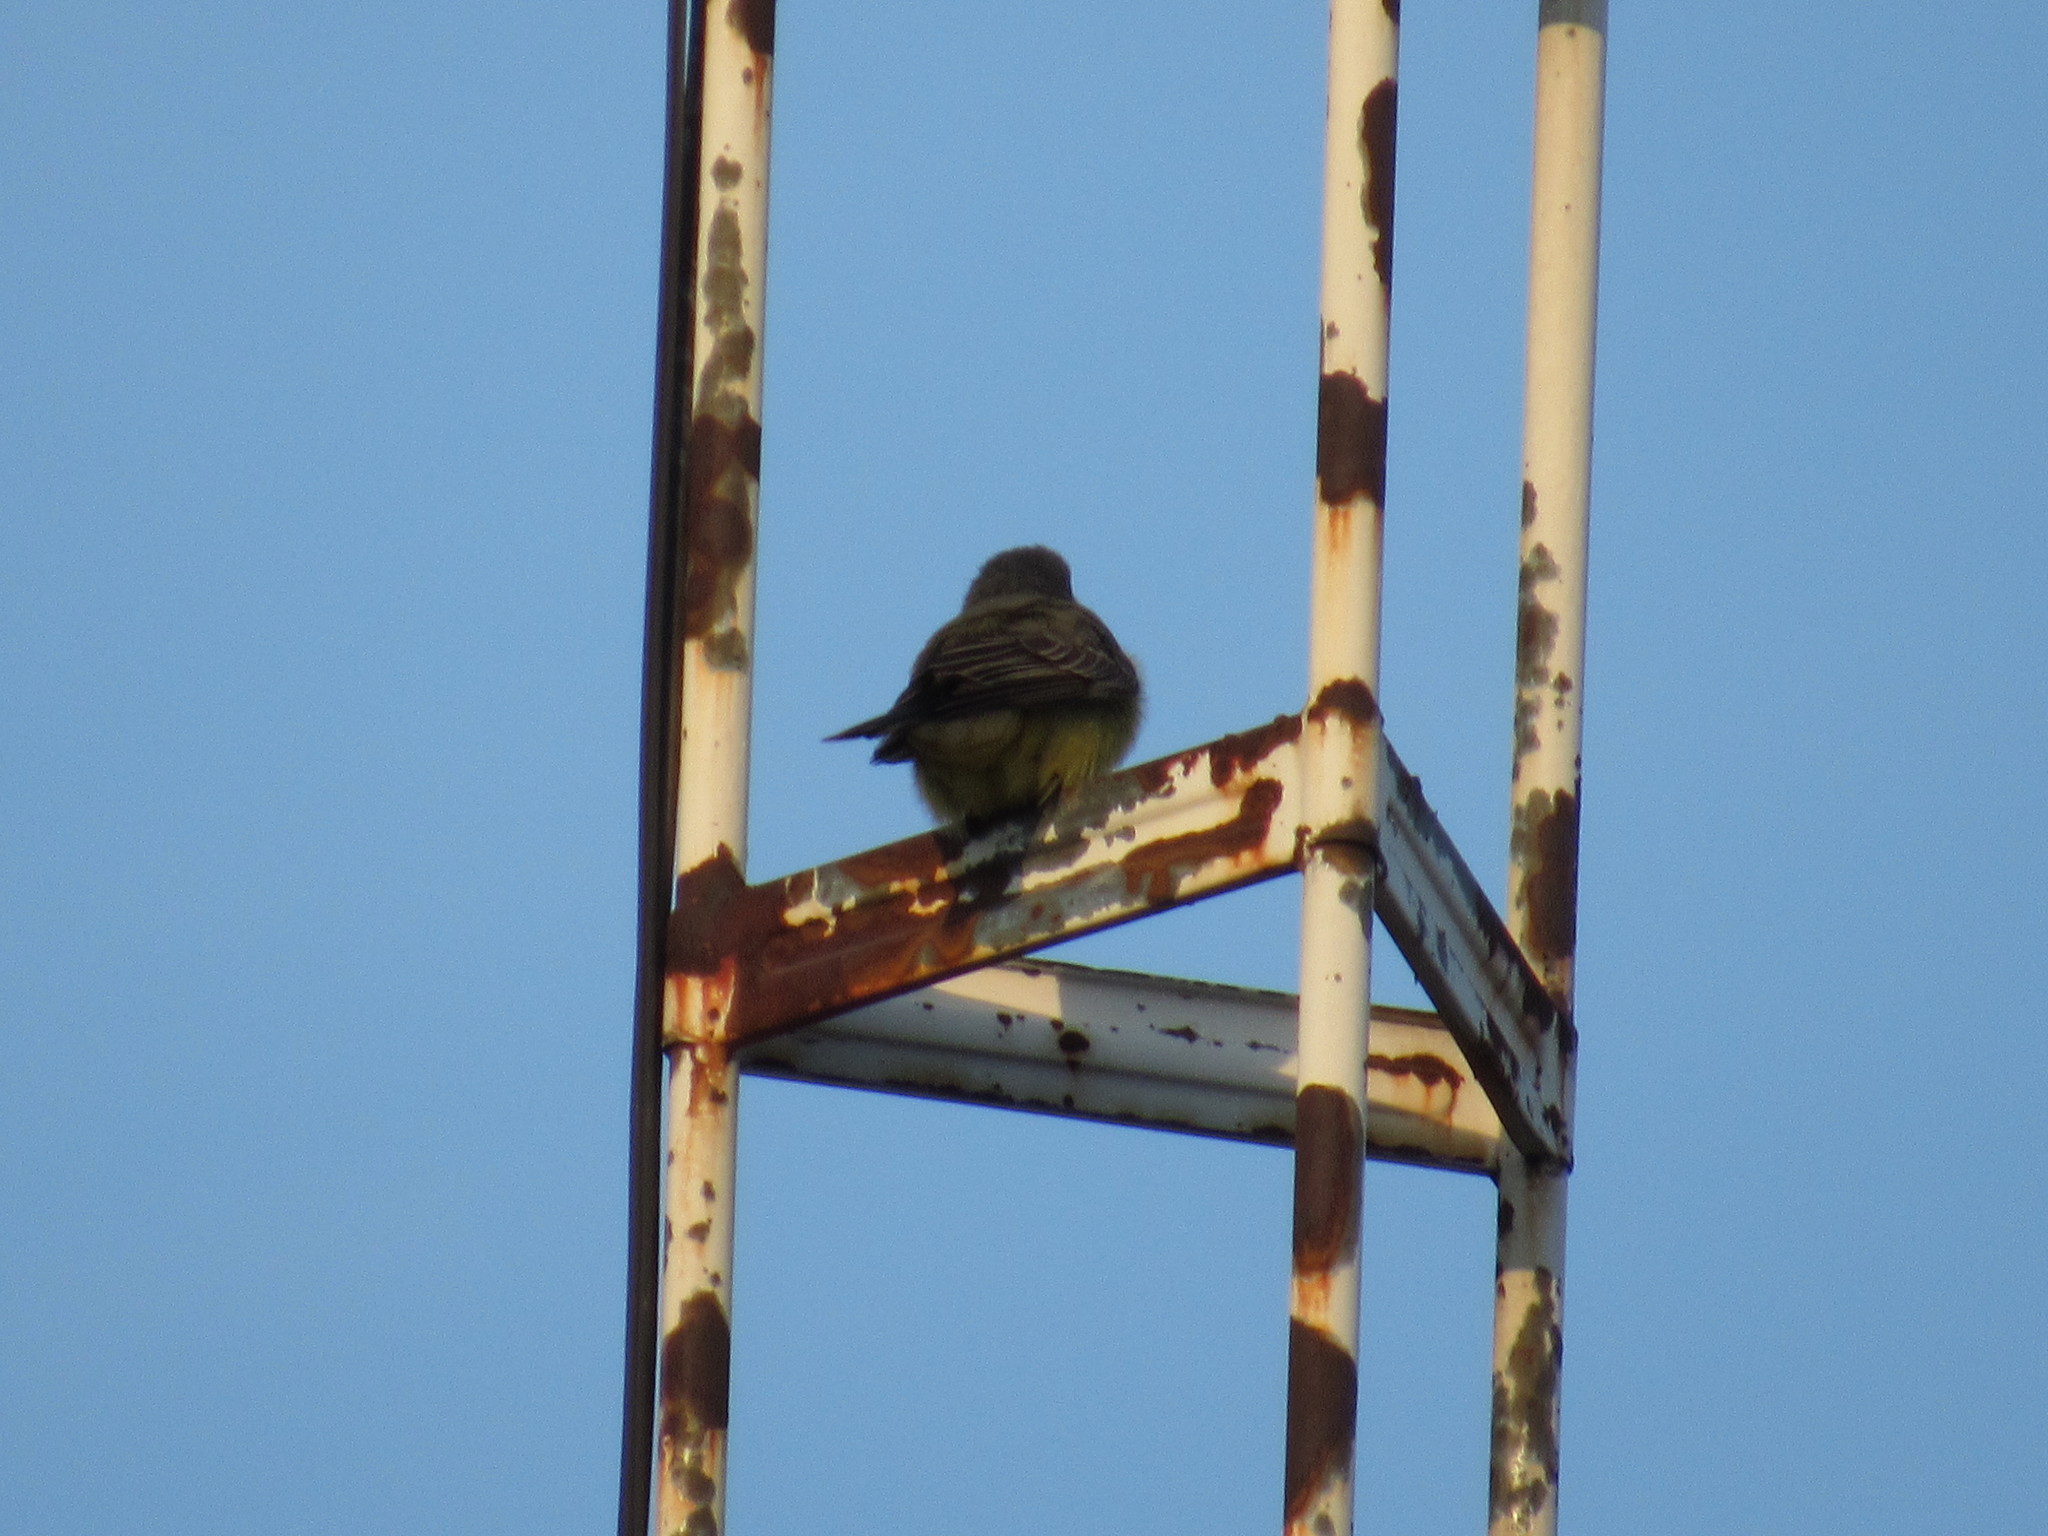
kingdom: Animalia
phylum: Chordata
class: Aves
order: Passeriformes
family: Tyrannidae
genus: Tyrannus
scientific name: Tyrannus vociferans
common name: Cassin's kingbird
